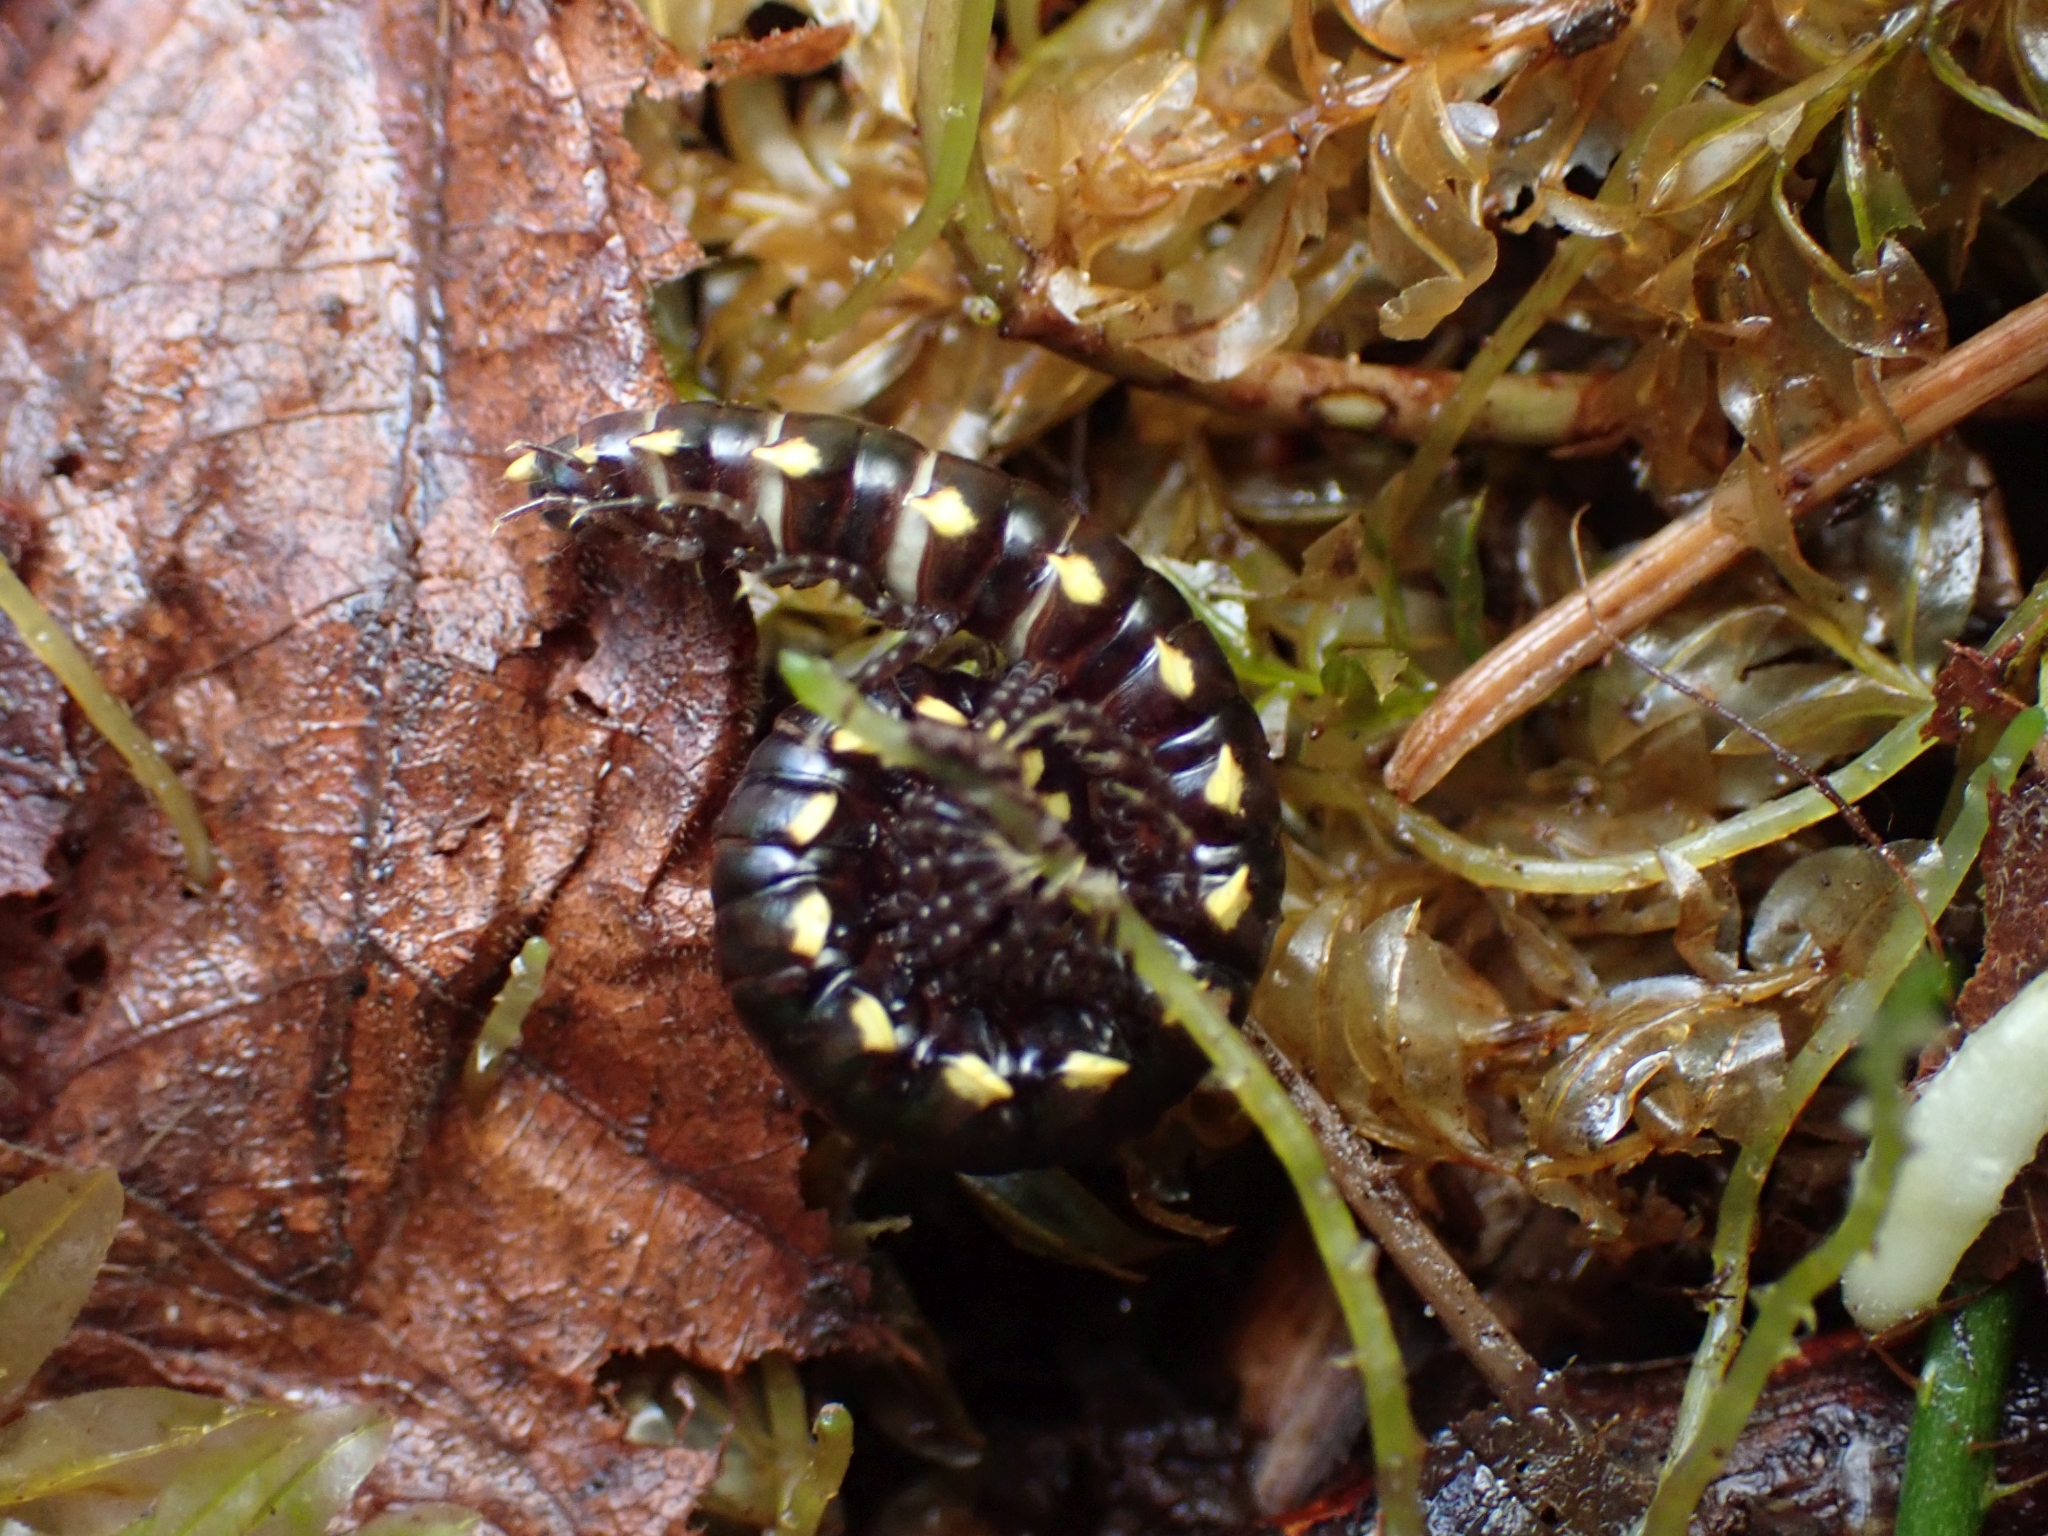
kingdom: Animalia
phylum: Arthropoda
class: Diplopoda
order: Polydesmida
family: Xystodesmidae
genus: Harpaphe
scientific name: Harpaphe haydeniana
